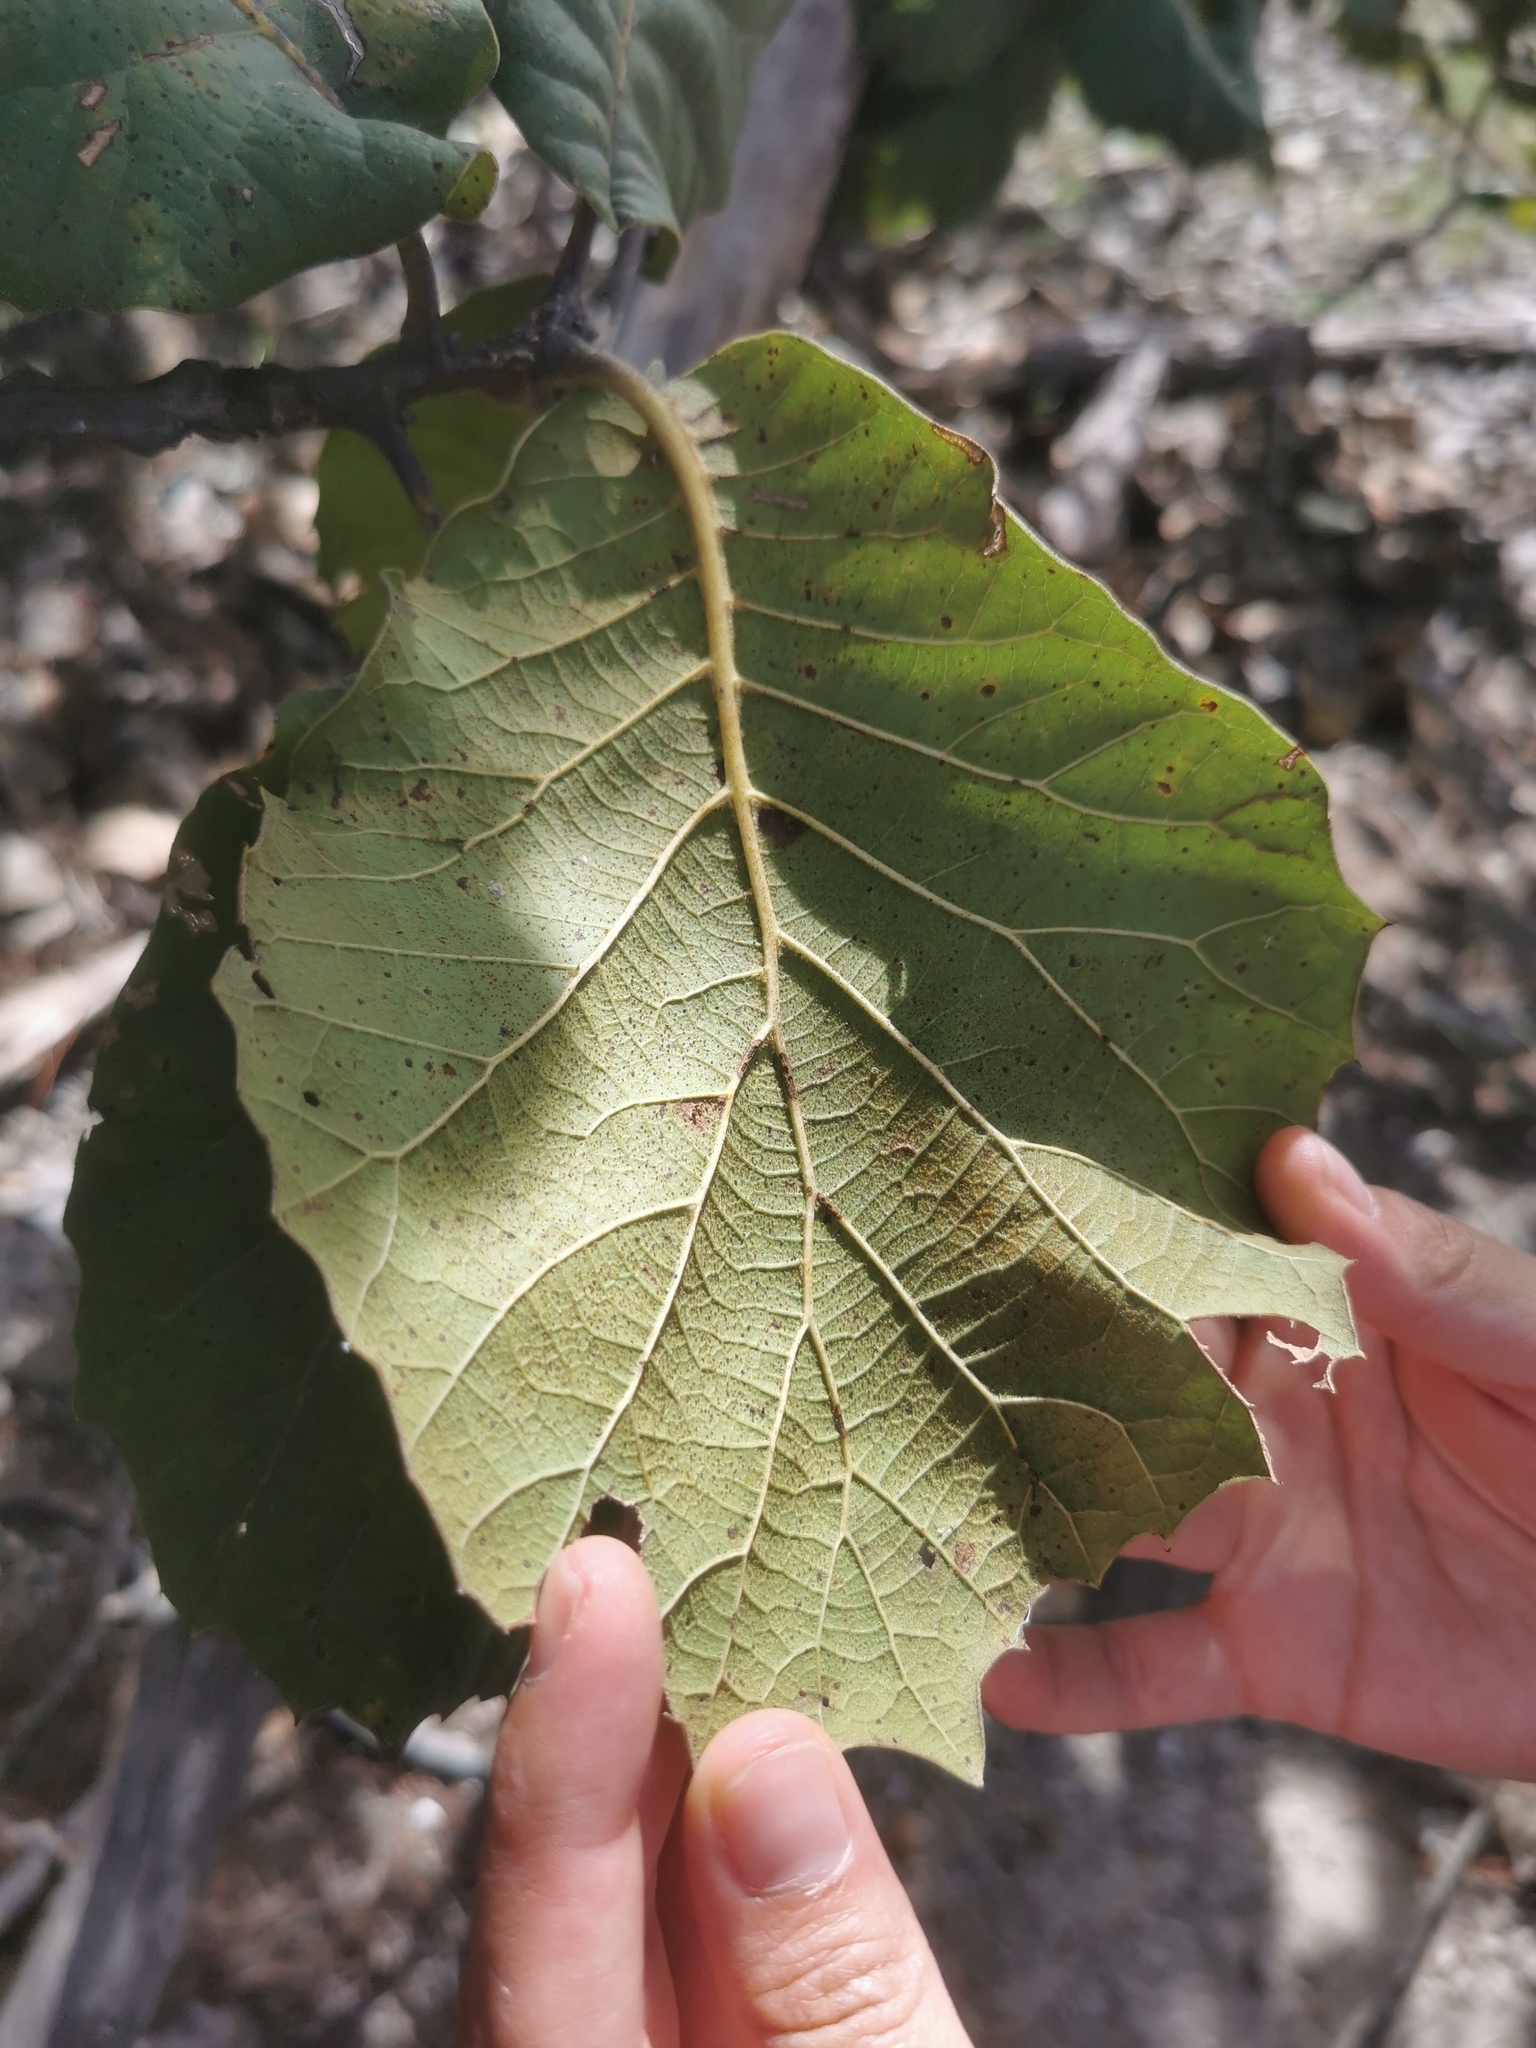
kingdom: Plantae
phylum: Tracheophyta
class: Magnoliopsida
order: Fagales
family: Fagaceae
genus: Quercus
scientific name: Quercus radiata
